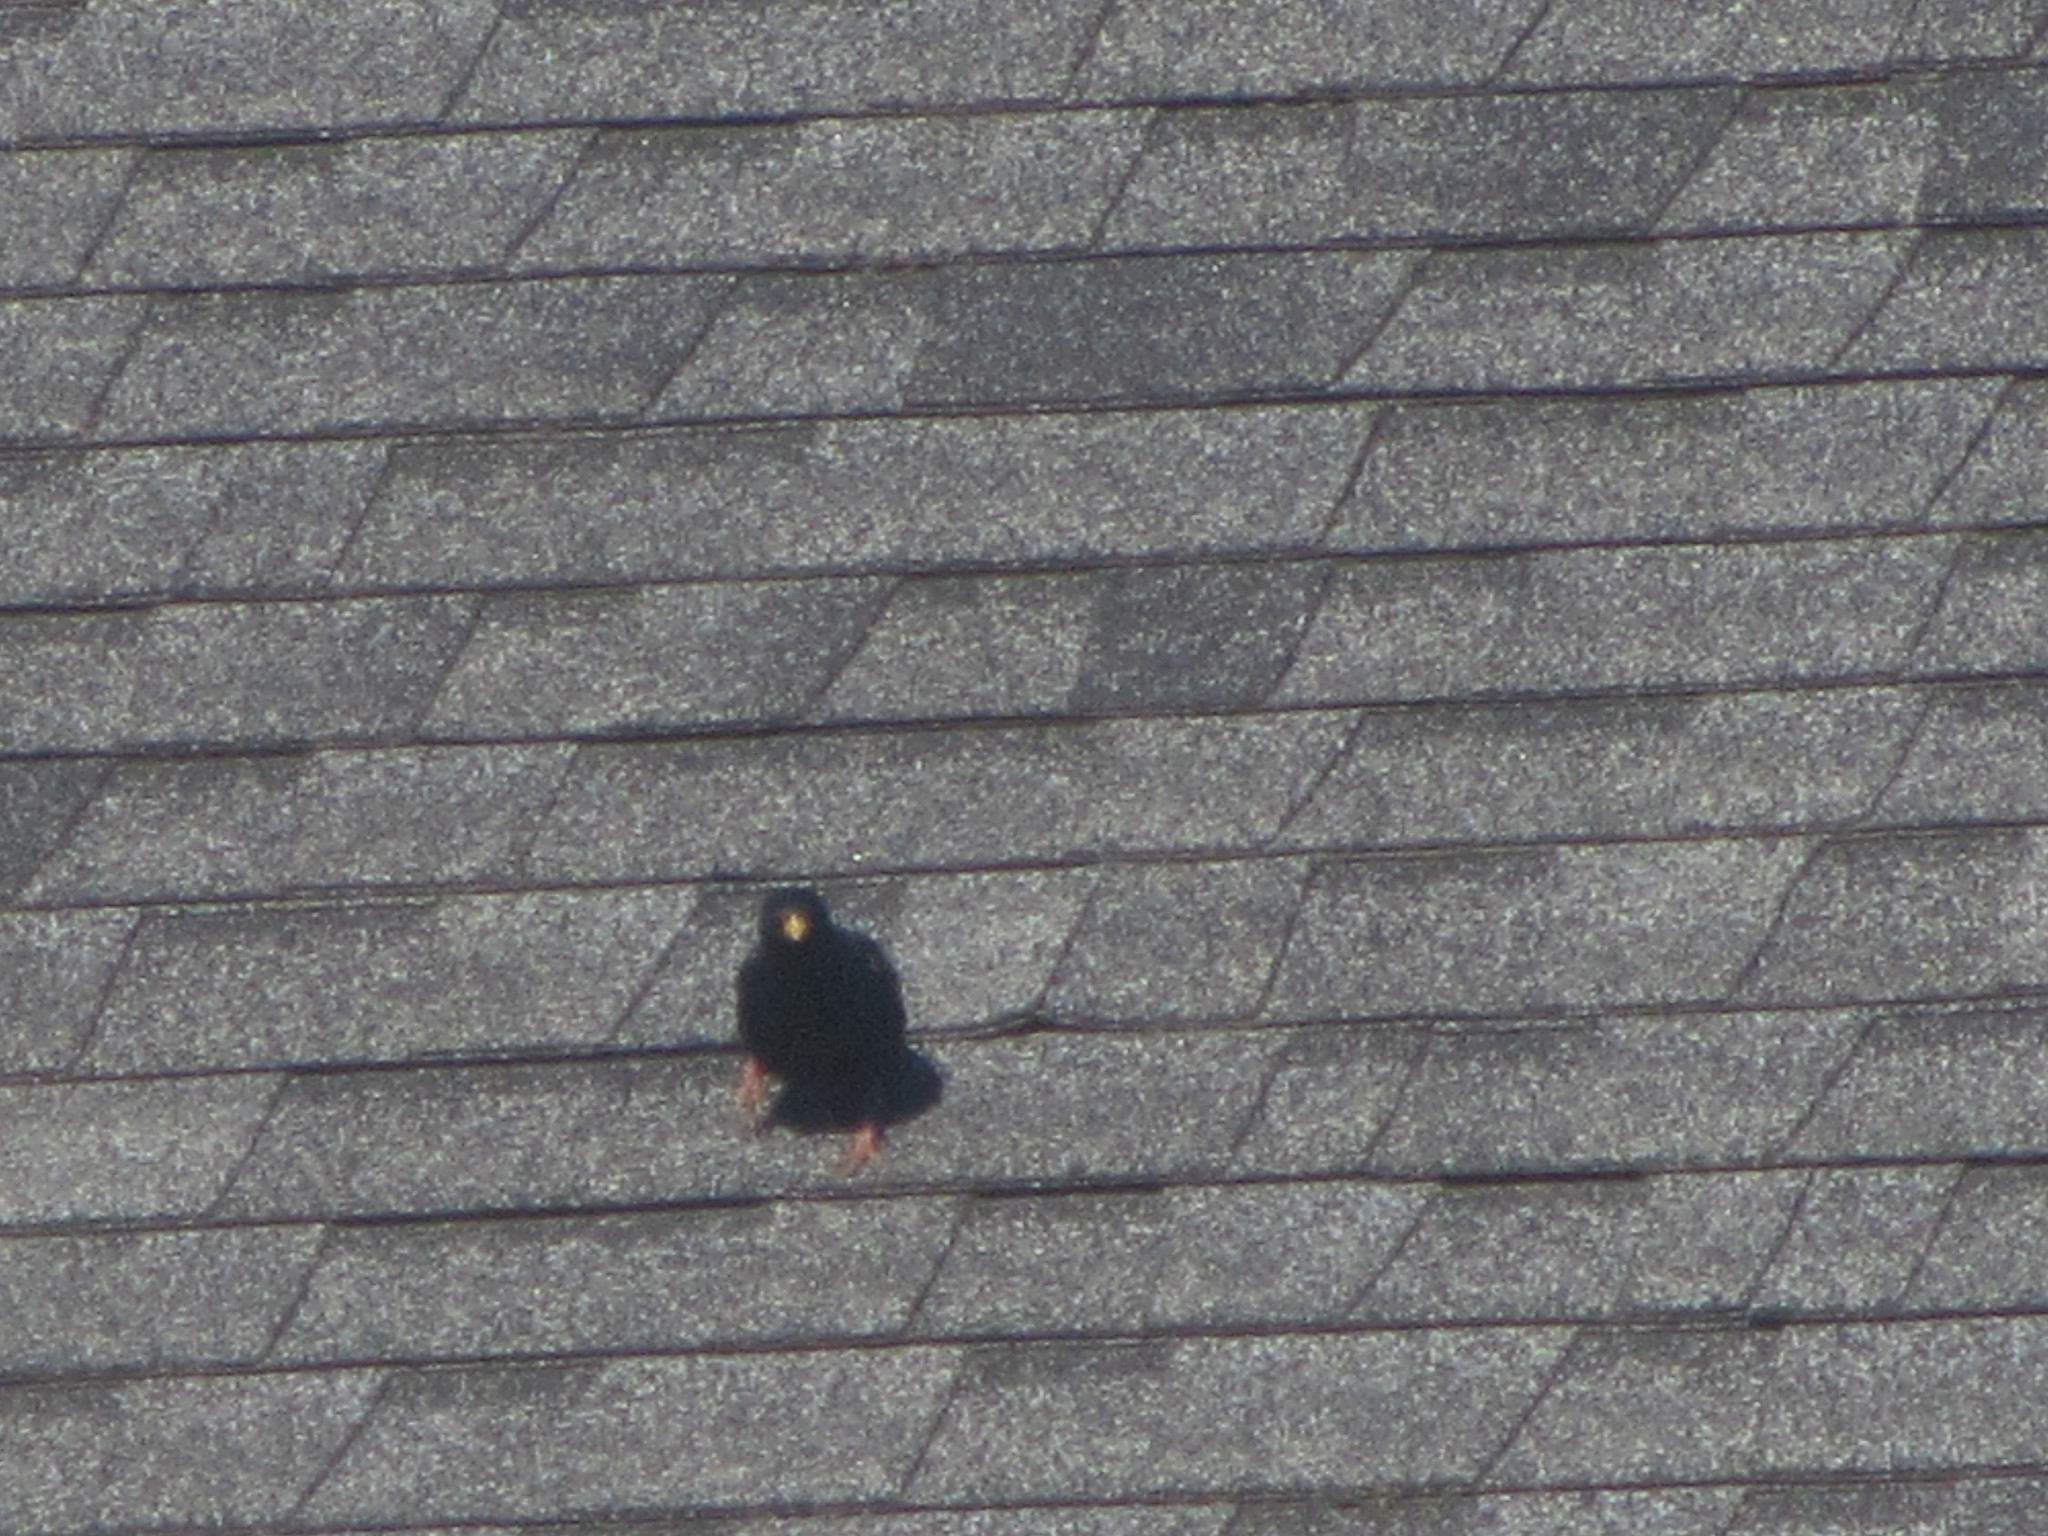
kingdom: Animalia
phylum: Chordata
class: Aves
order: Passeriformes
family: Sturnidae
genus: Sturnus
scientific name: Sturnus vulgaris
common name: Common starling
